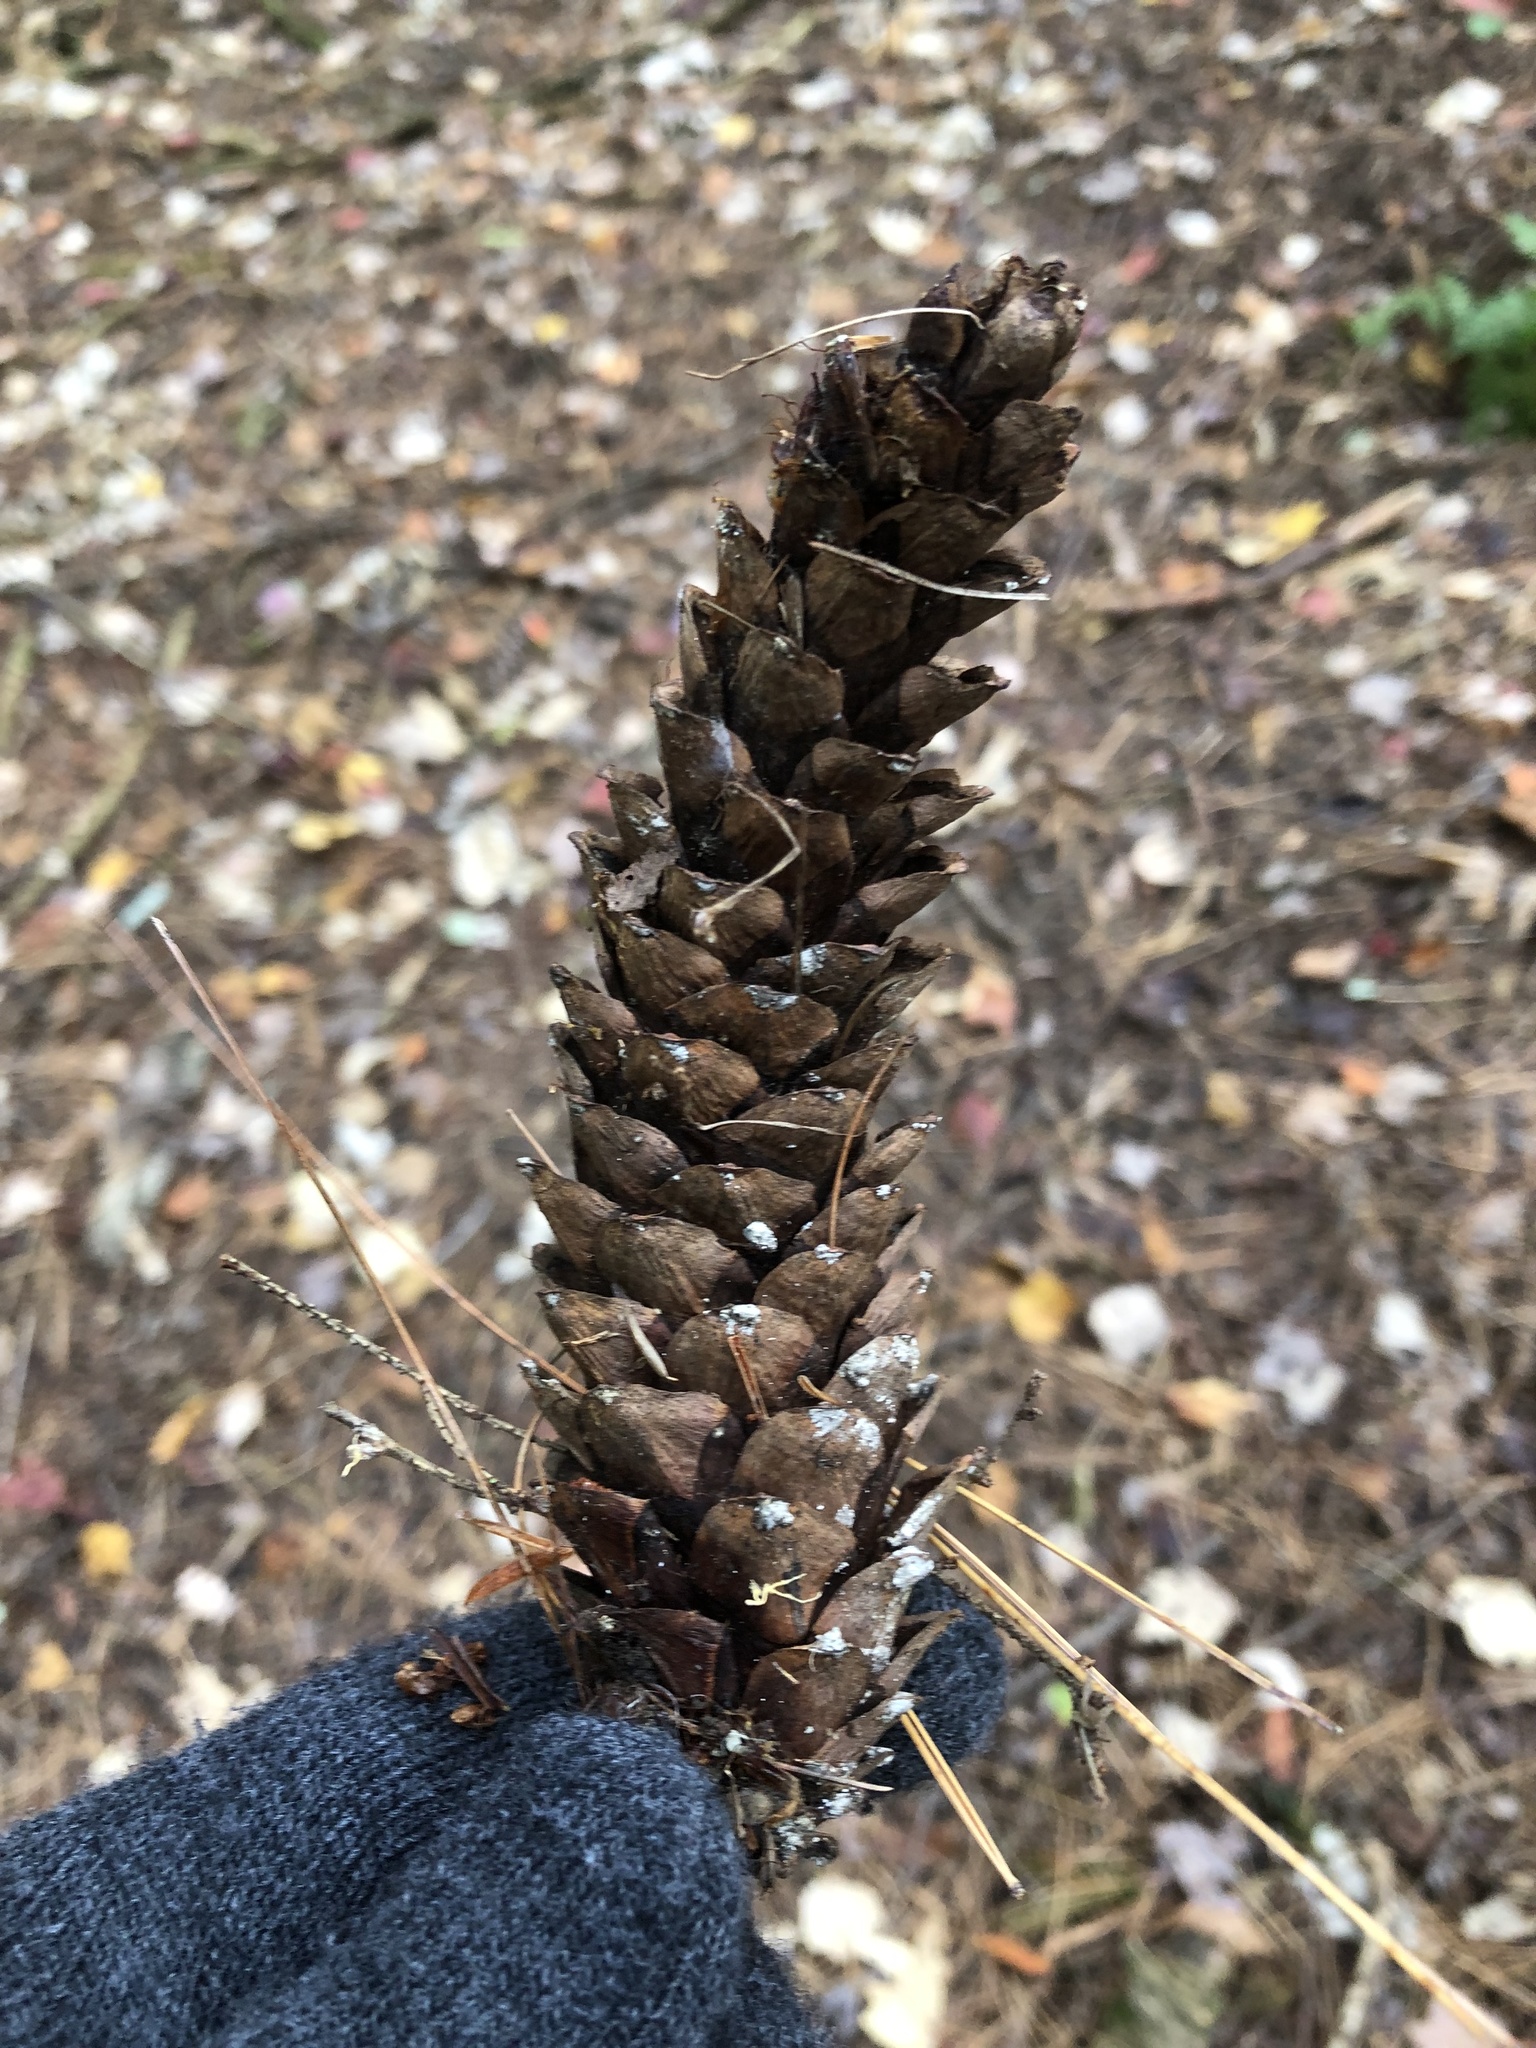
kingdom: Plantae
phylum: Tracheophyta
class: Pinopsida
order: Pinales
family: Pinaceae
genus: Pinus
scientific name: Pinus strobus
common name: Weymouth pine
